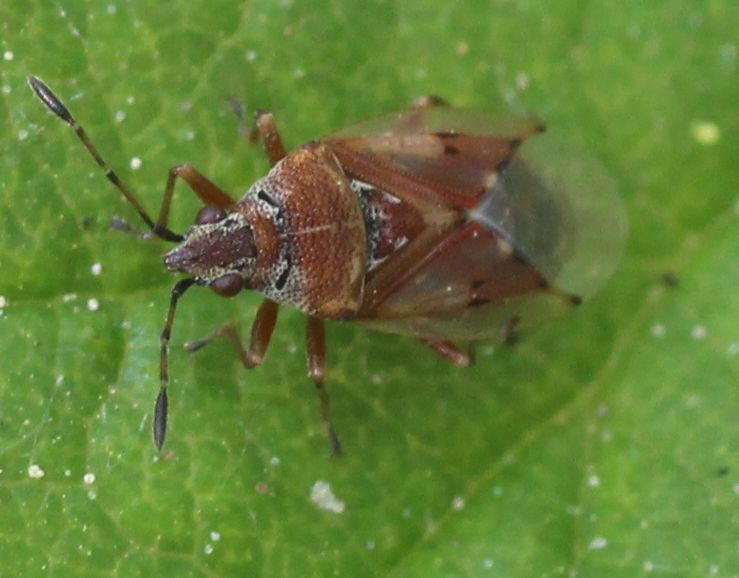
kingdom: Animalia
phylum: Arthropoda
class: Insecta
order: Hemiptera
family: Lygaeidae
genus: Kleidocerys
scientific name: Kleidocerys resedae
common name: Birch catkin bug
